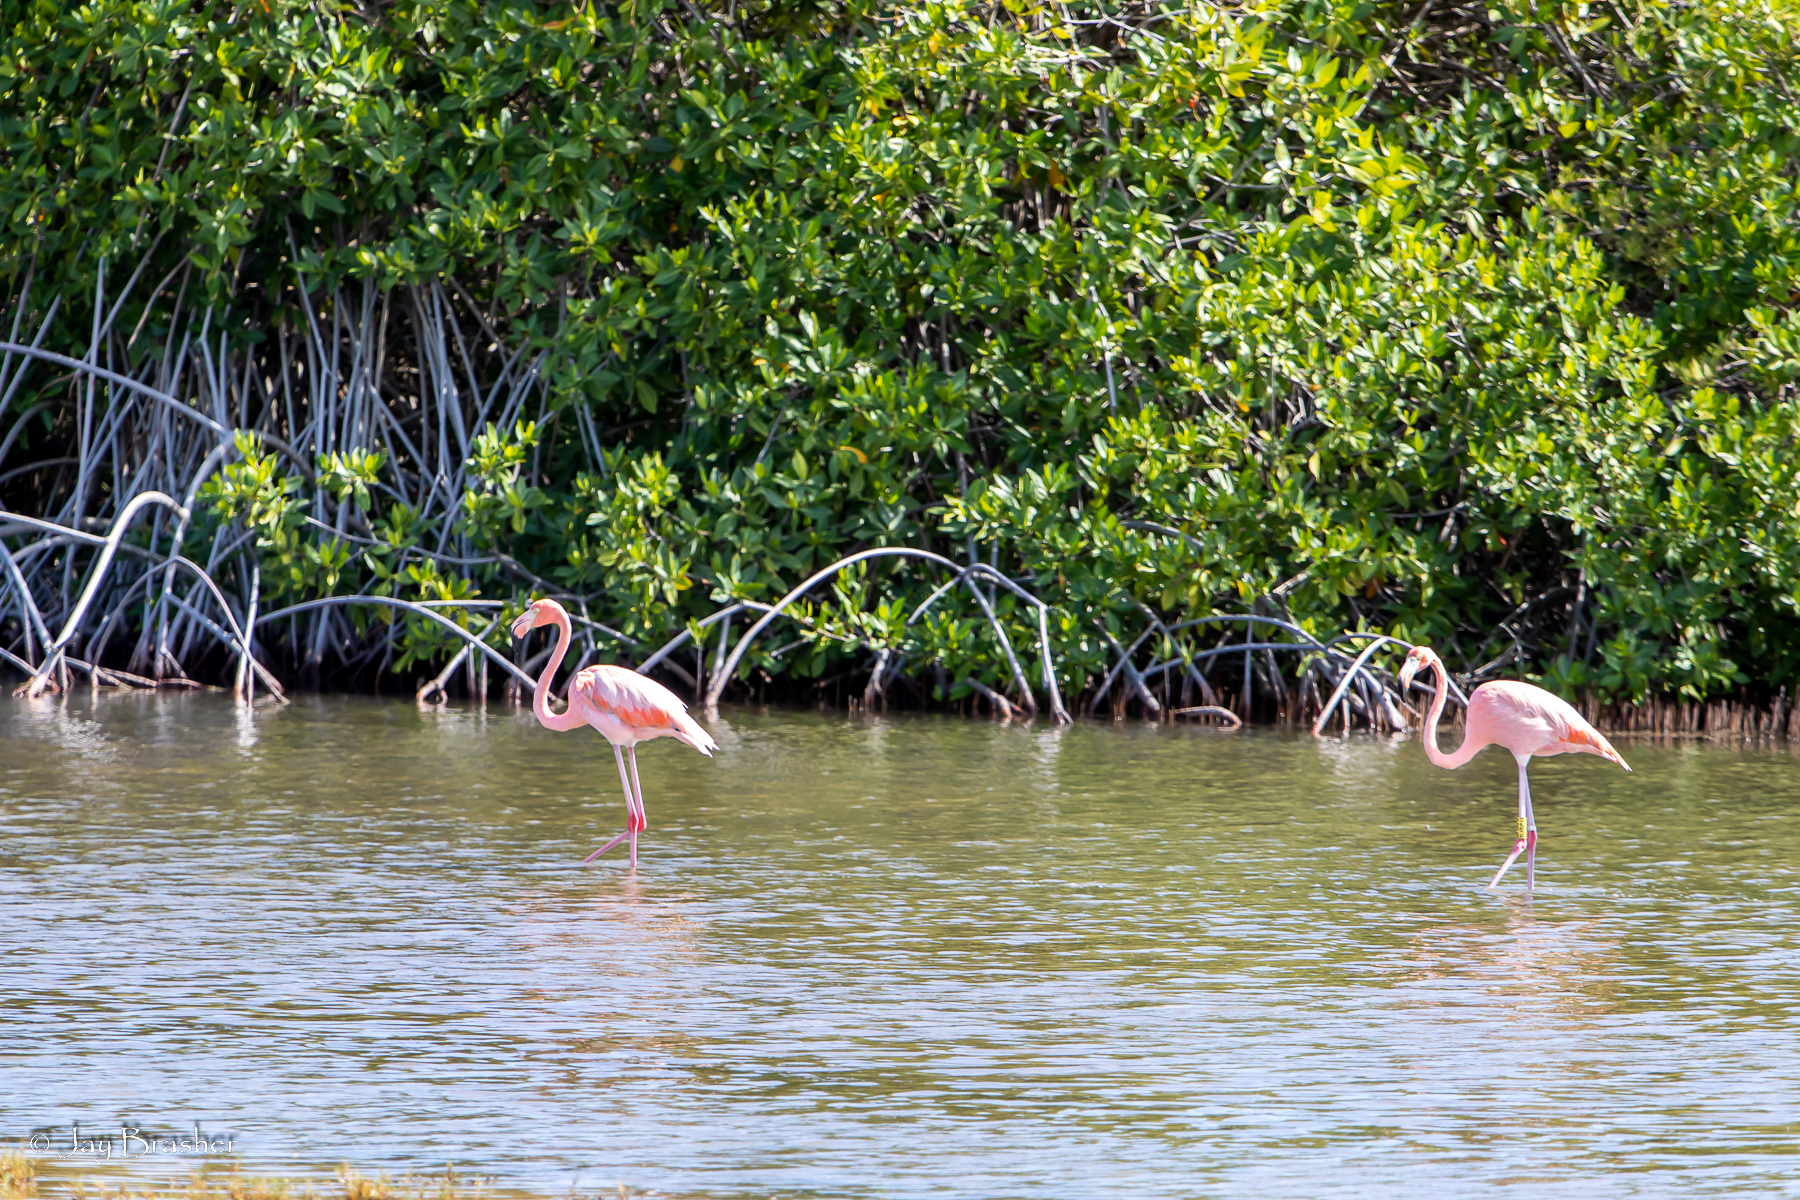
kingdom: Plantae
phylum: Tracheophyta
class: Magnoliopsida
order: Malpighiales
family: Rhizophoraceae
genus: Rhizophora
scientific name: Rhizophora mangle
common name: Red mangrove
